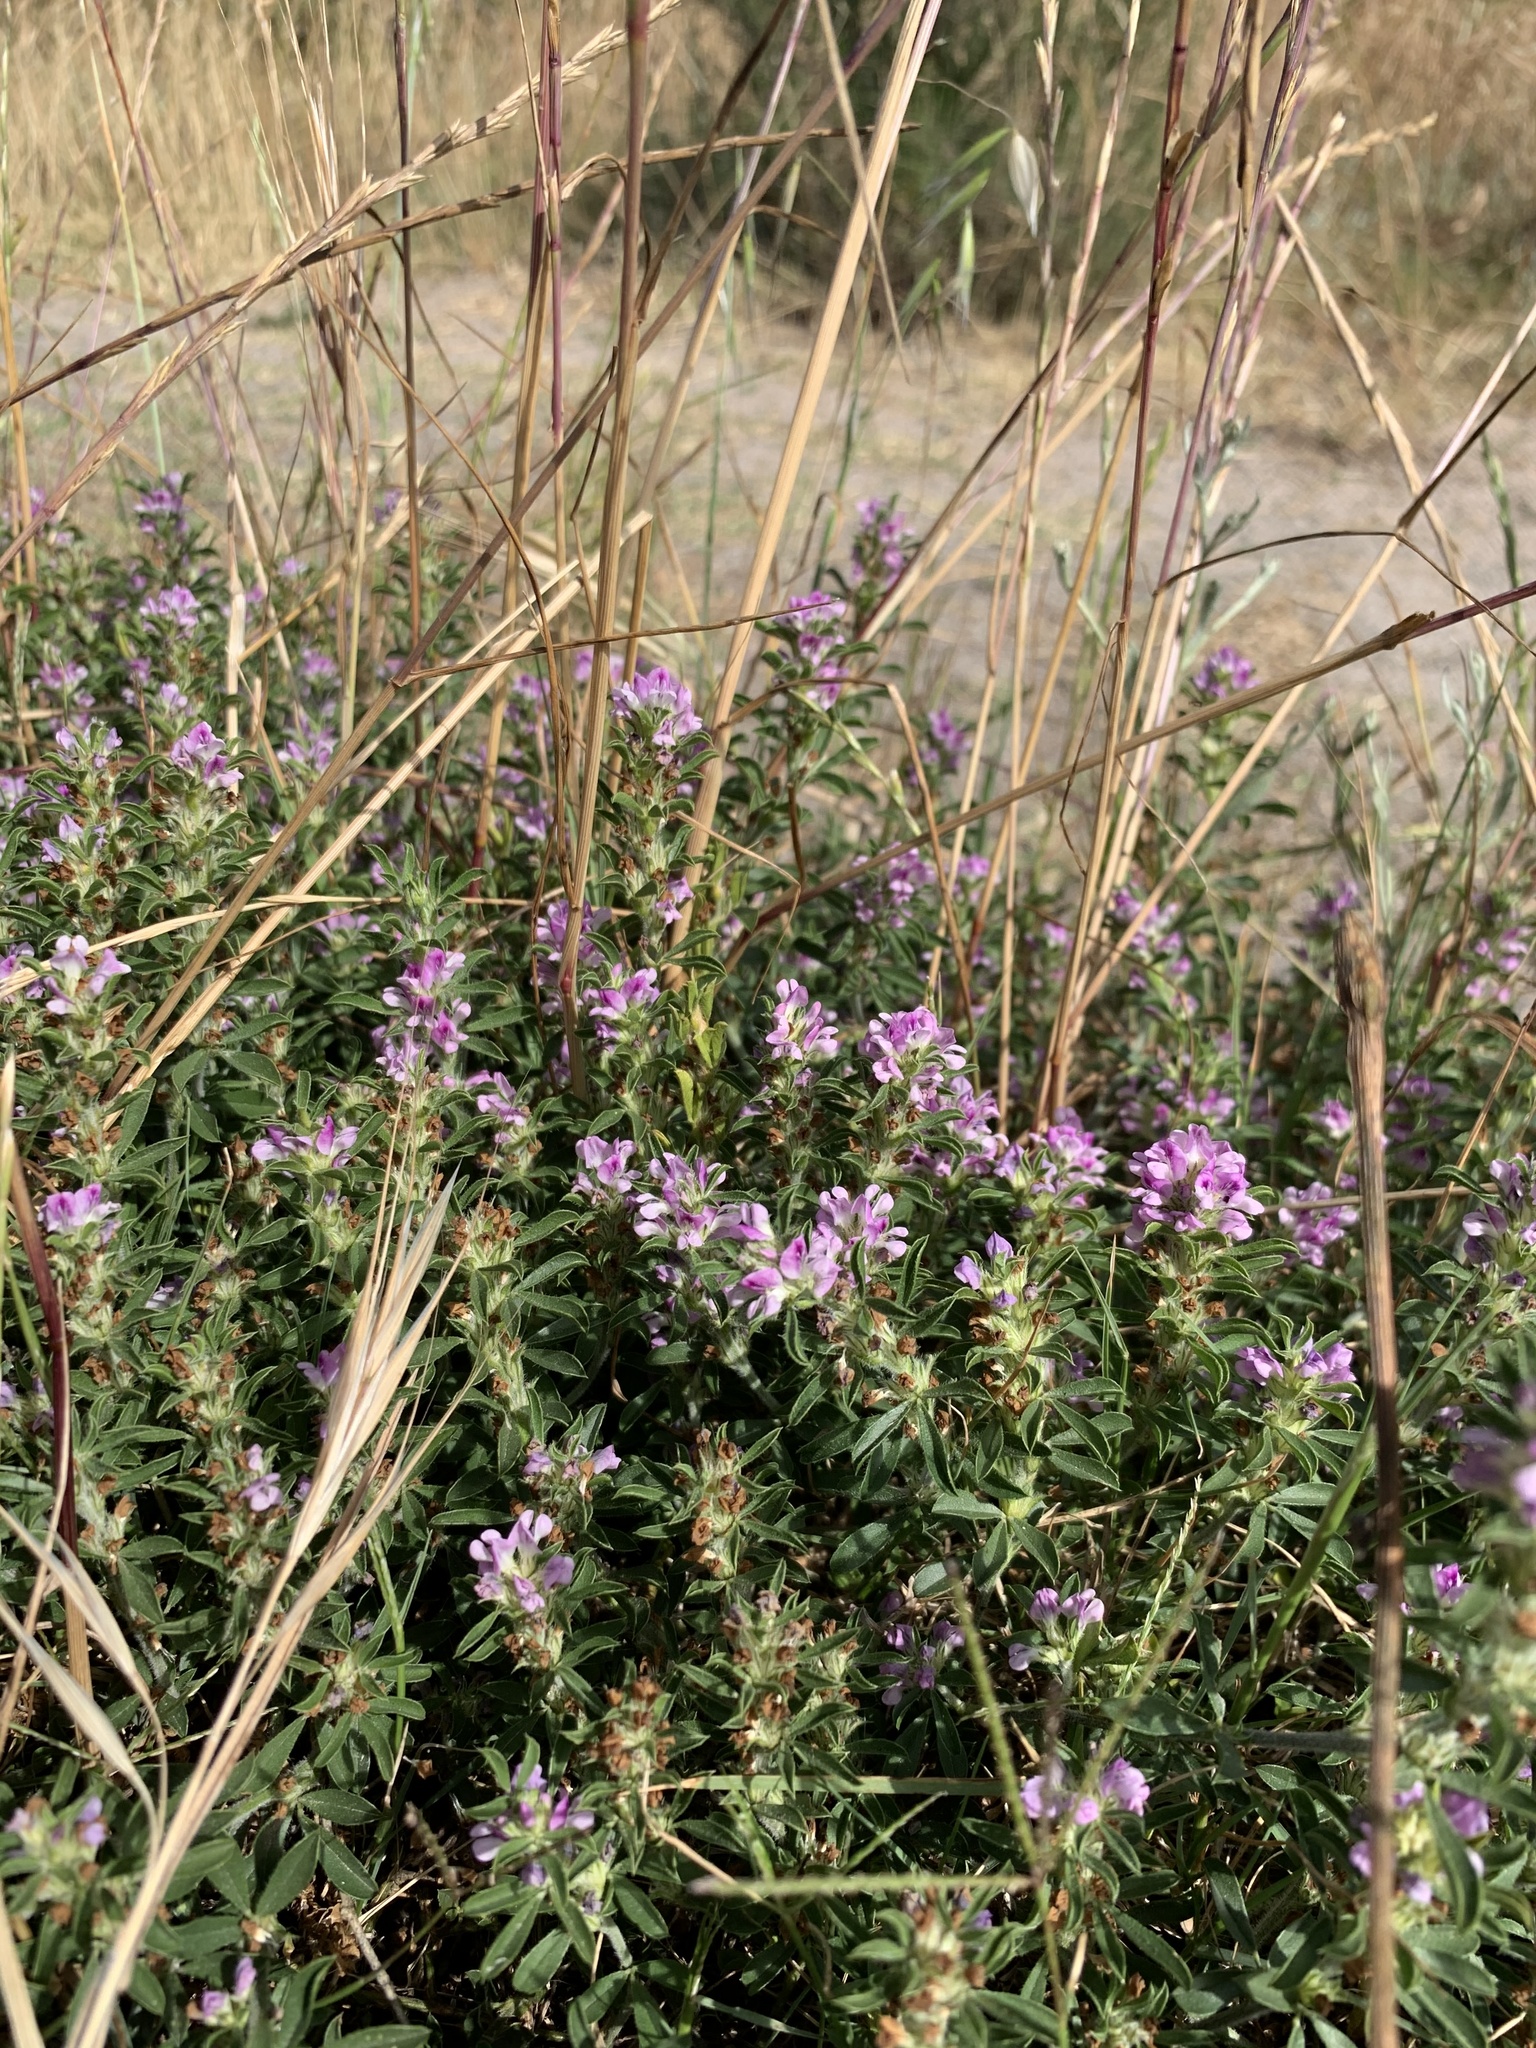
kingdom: Plantae
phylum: Tracheophyta
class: Magnoliopsida
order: Fabales
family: Fabaceae
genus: Psoralea
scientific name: Psoralea
